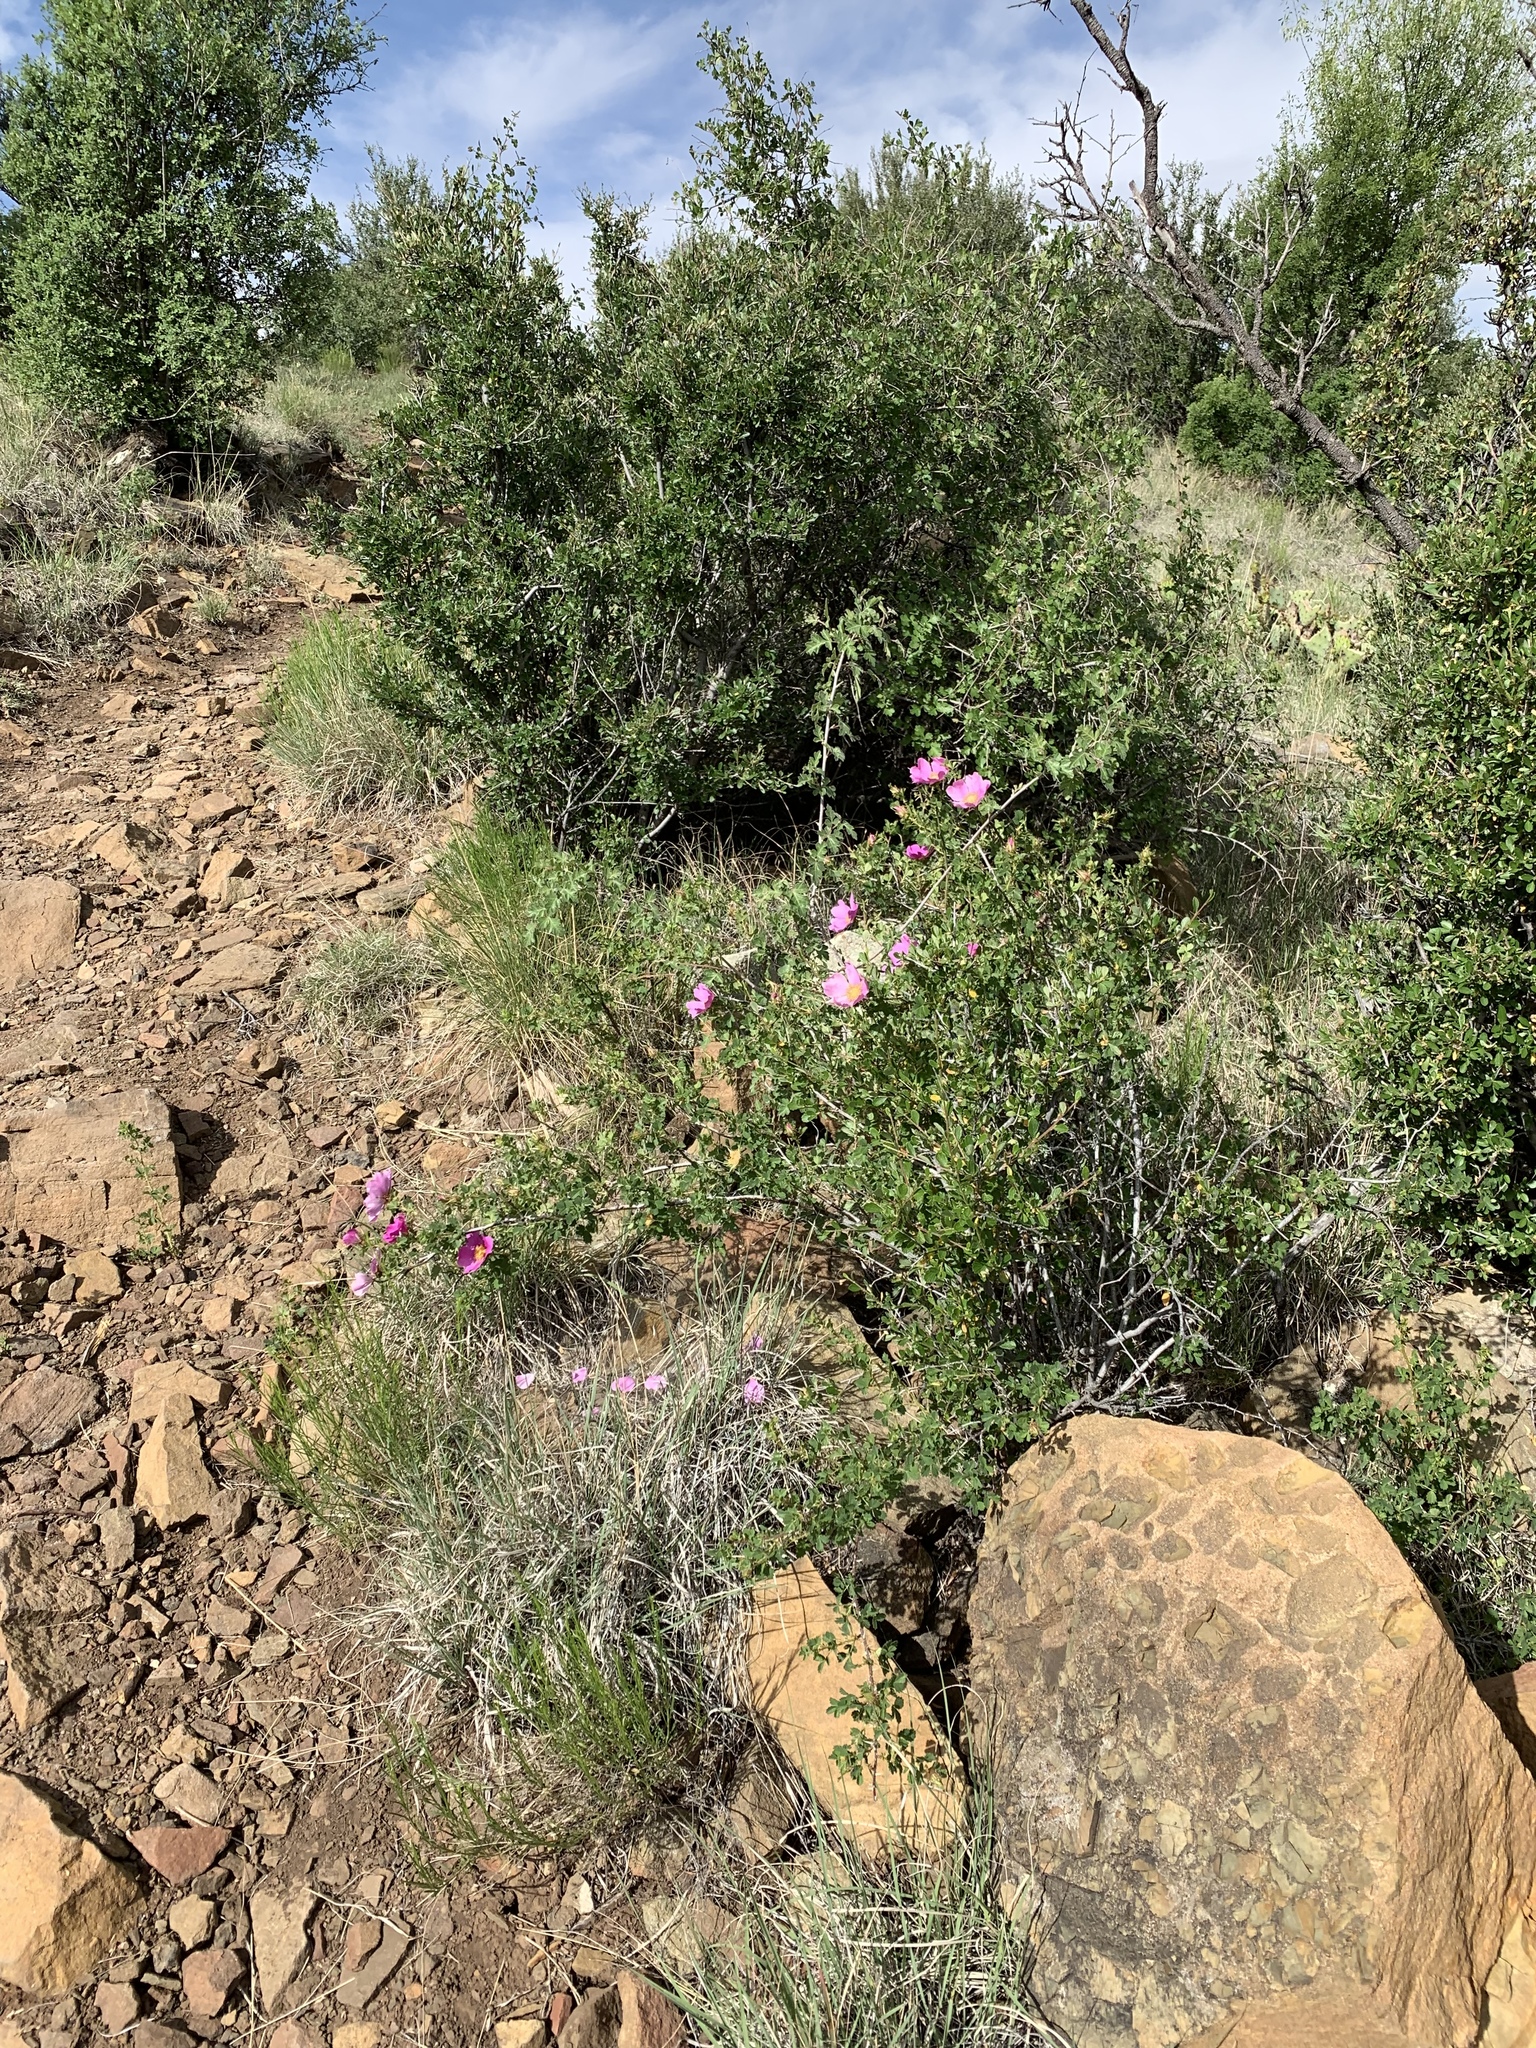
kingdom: Plantae
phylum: Tracheophyta
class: Magnoliopsida
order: Rosales
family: Rosaceae
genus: Rosa
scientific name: Rosa stellata
